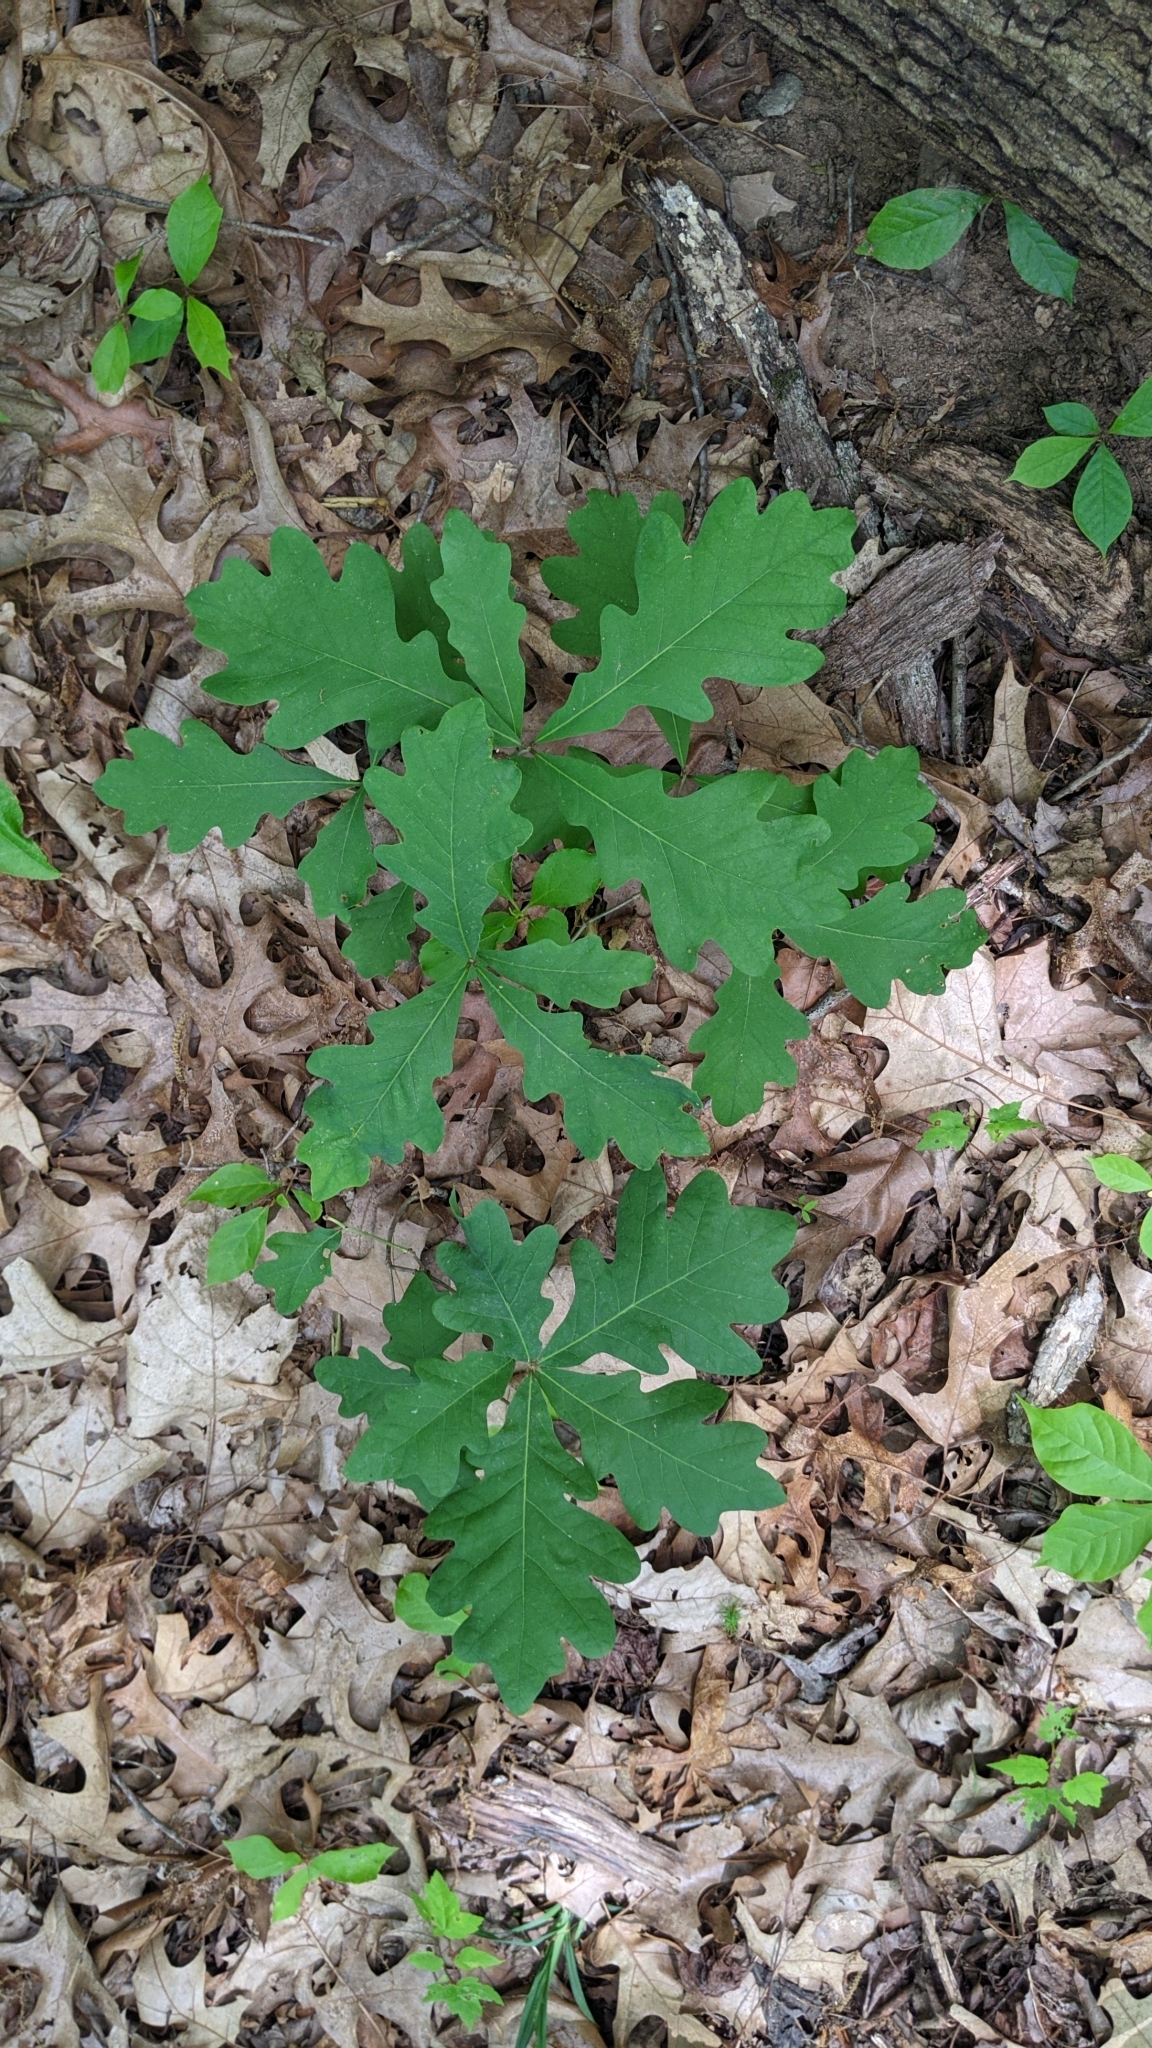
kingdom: Plantae
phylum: Tracheophyta
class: Magnoliopsida
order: Fagales
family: Fagaceae
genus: Quercus
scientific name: Quercus alba
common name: White oak
